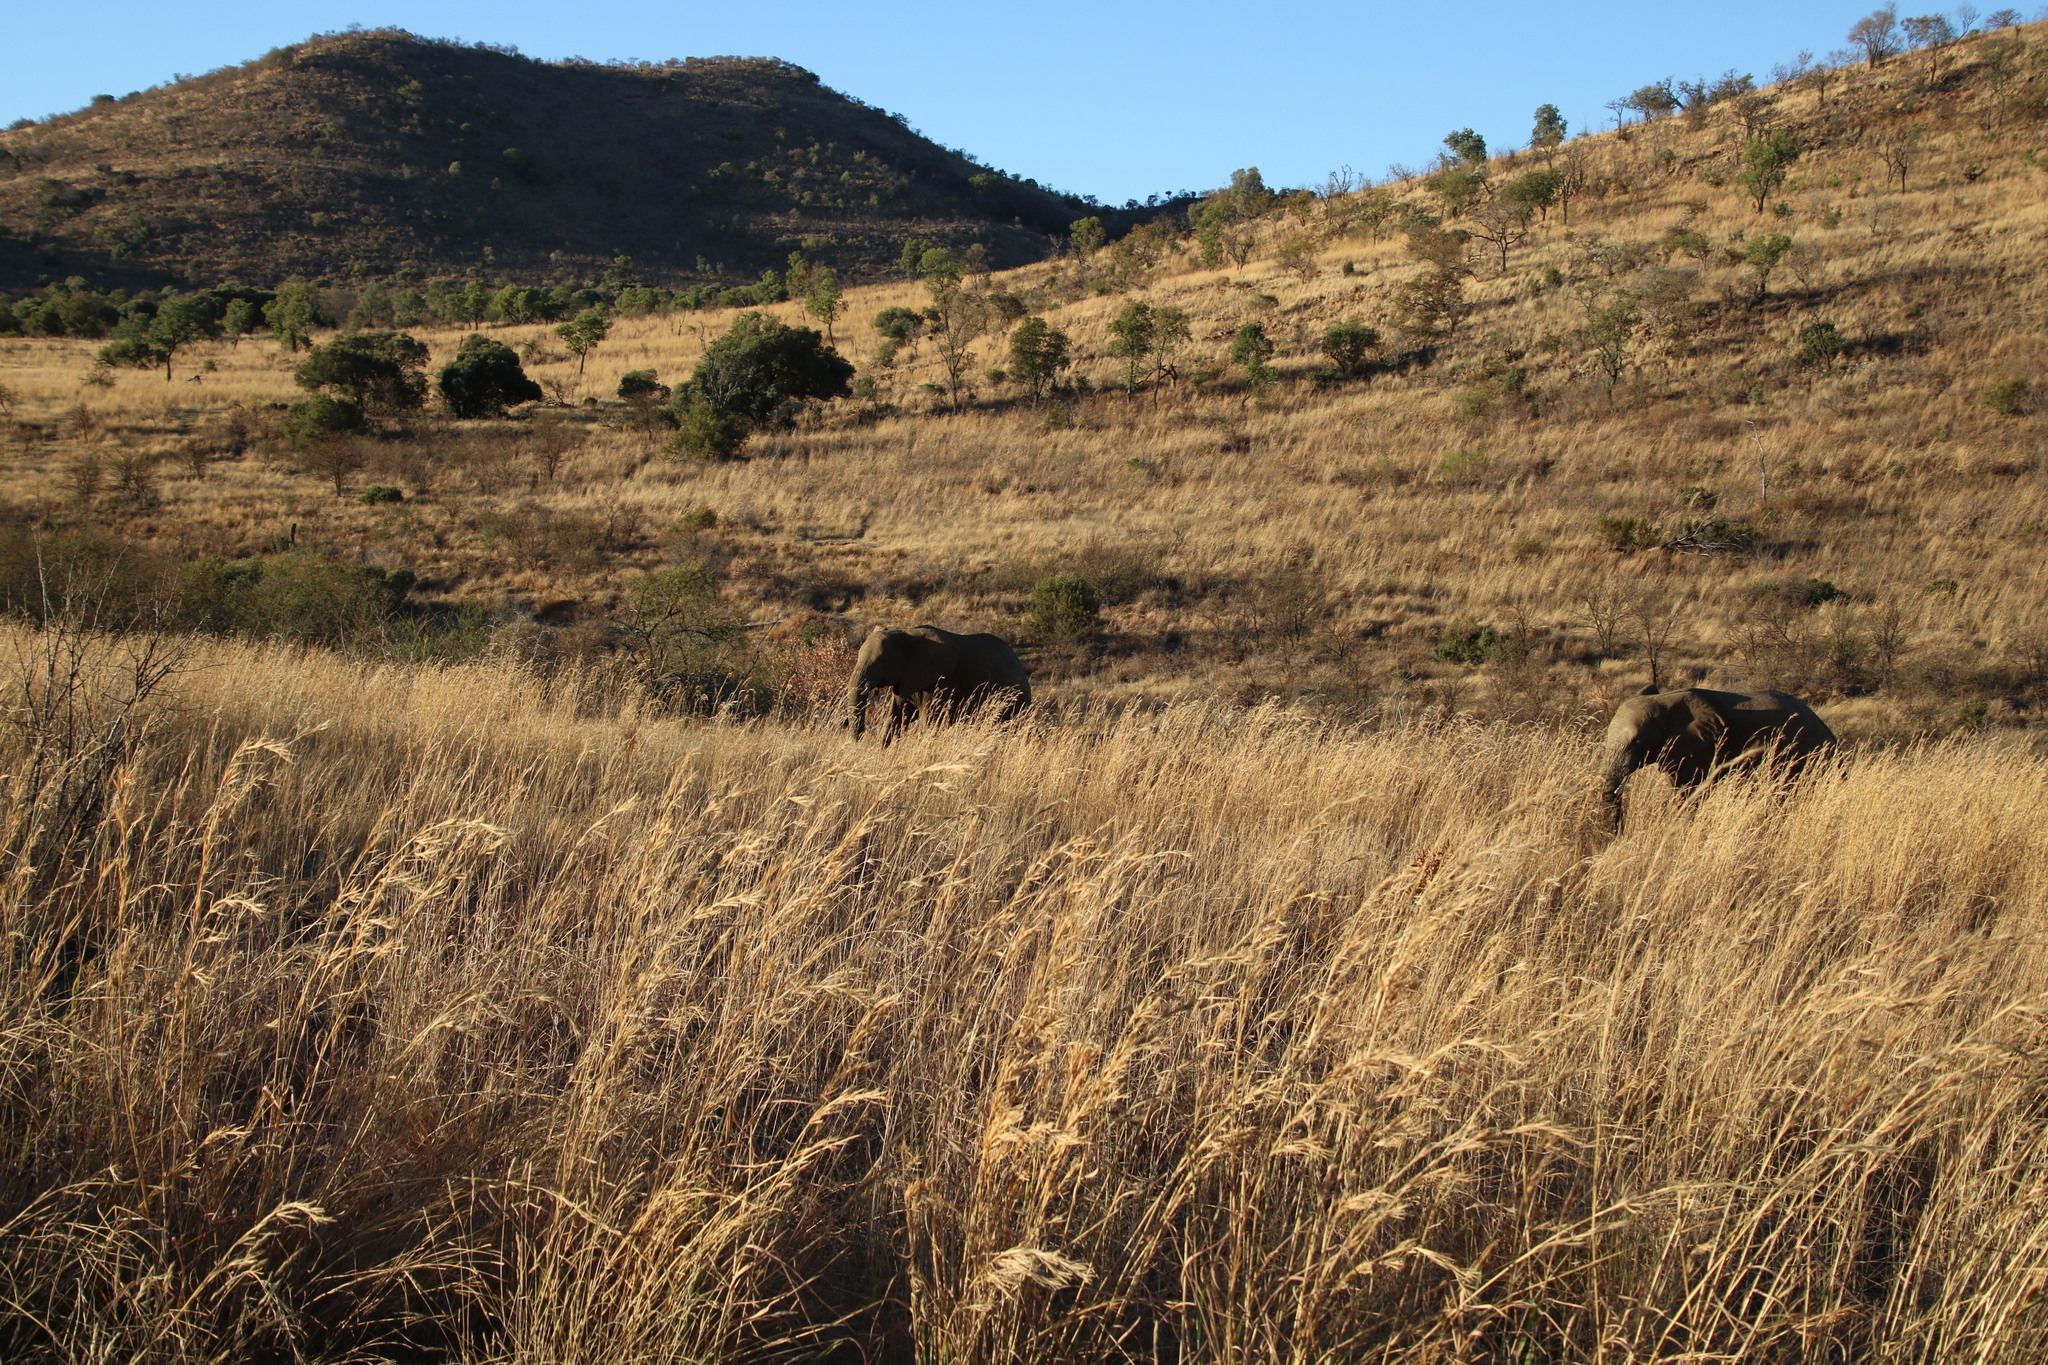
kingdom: Animalia
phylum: Chordata
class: Mammalia
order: Proboscidea
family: Elephantidae
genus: Loxodonta
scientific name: Loxodonta africana
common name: African elephant
